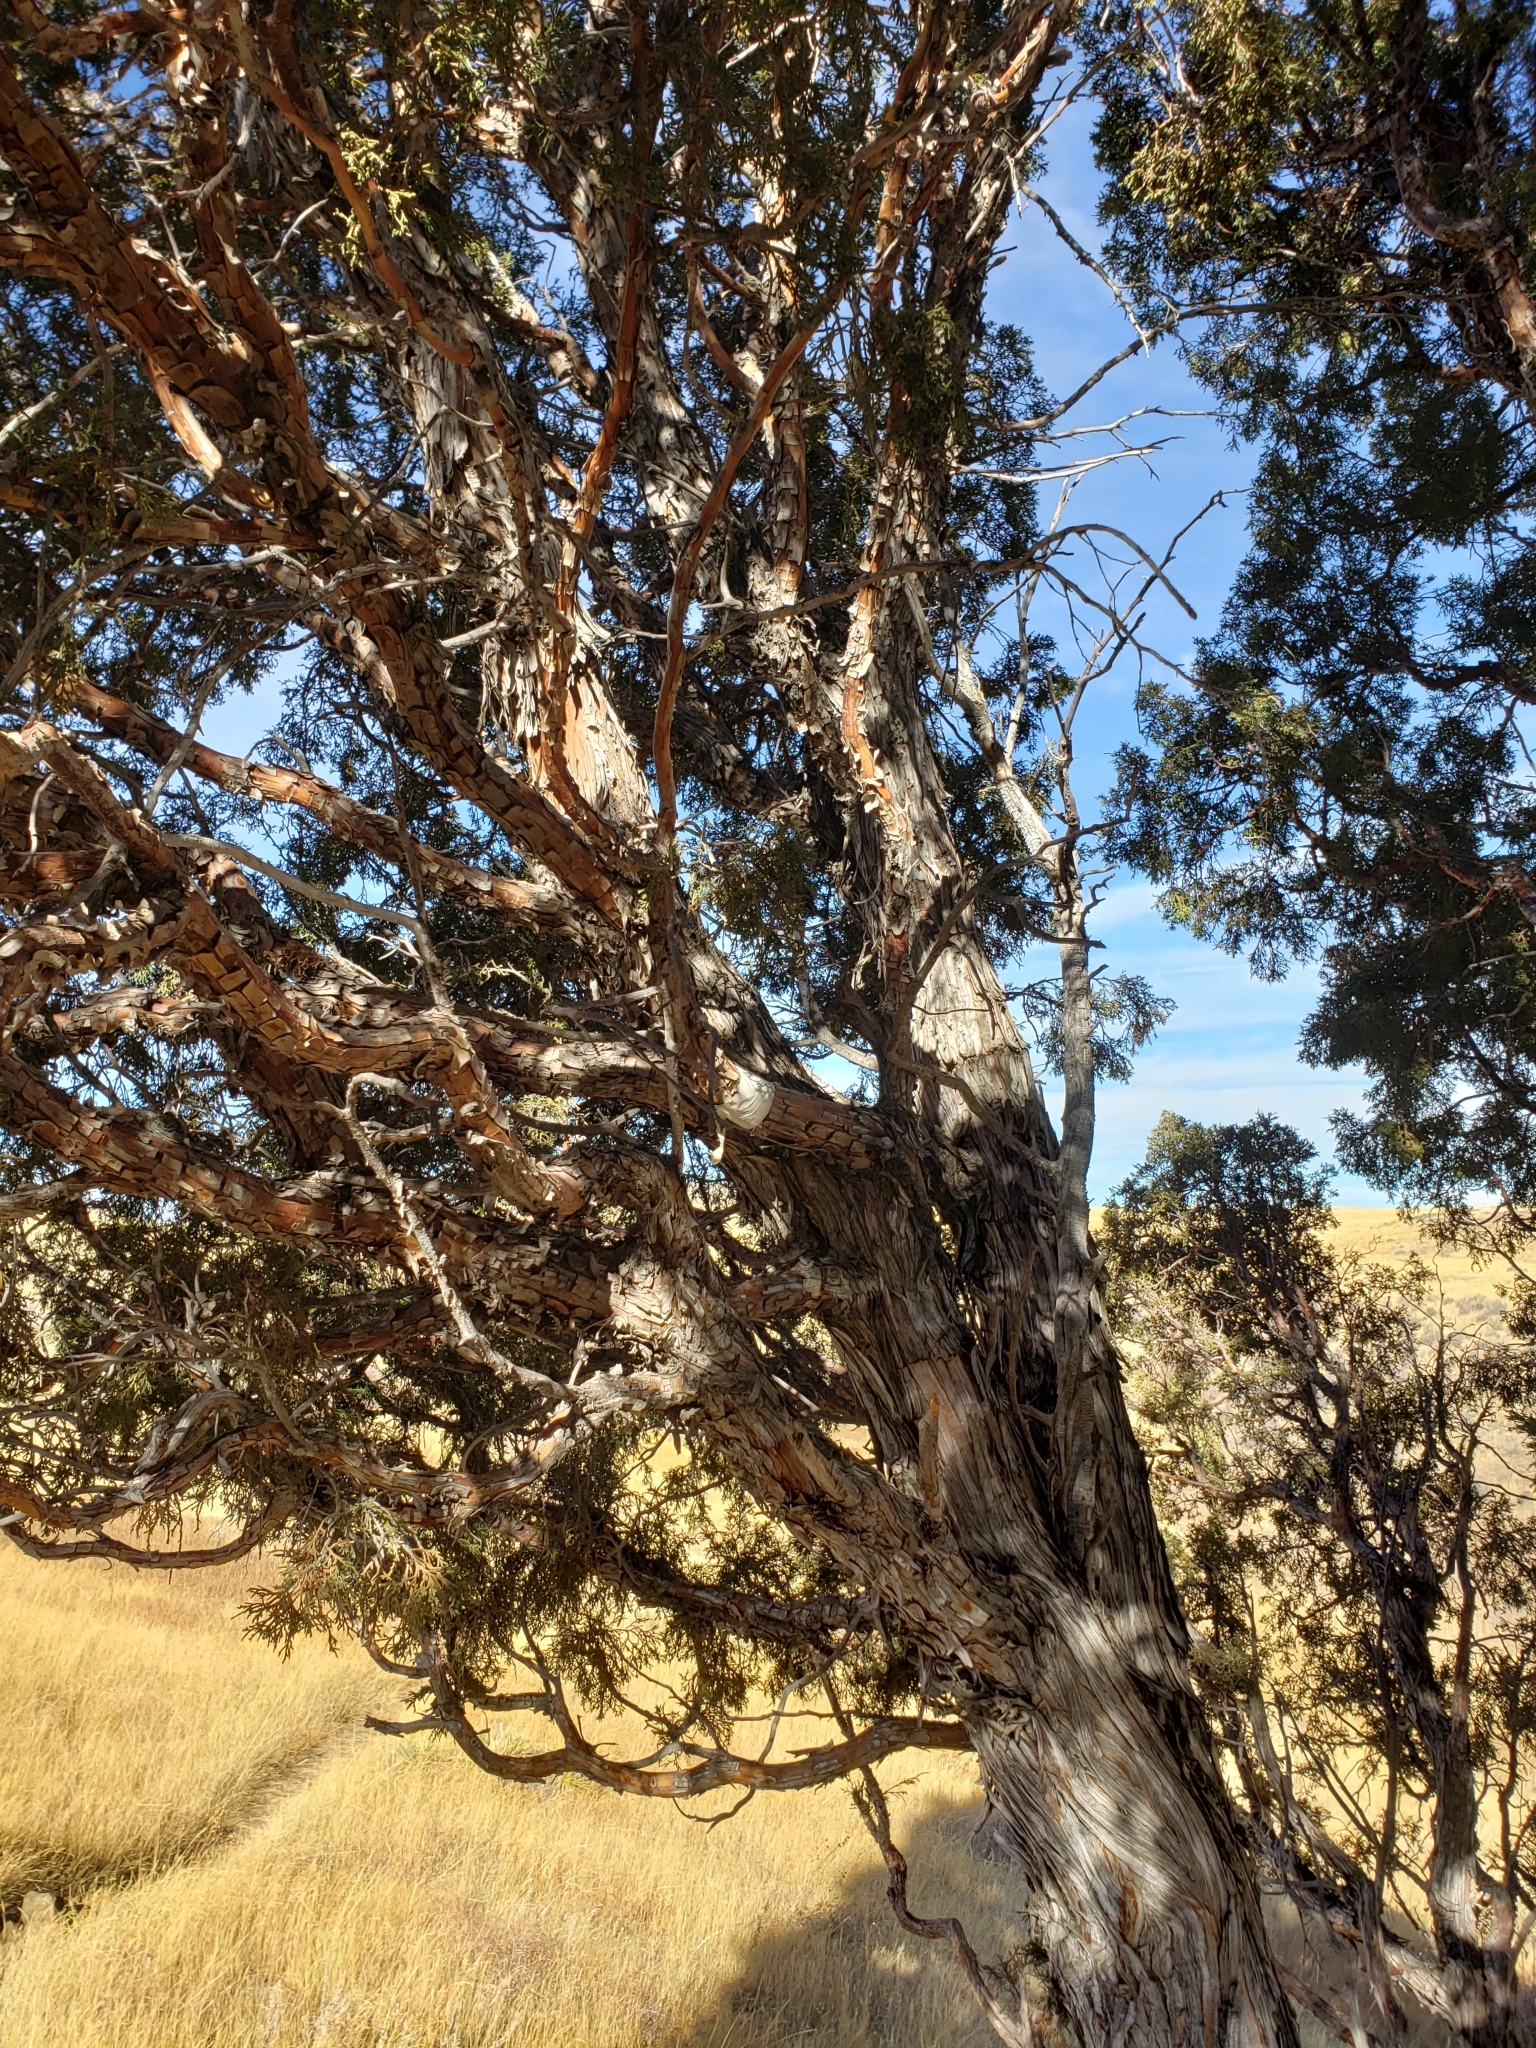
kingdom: Plantae
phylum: Tracheophyta
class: Pinopsida
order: Pinales
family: Cupressaceae
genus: Juniperus
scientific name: Juniperus scopulorum
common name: Rocky mountain juniper
